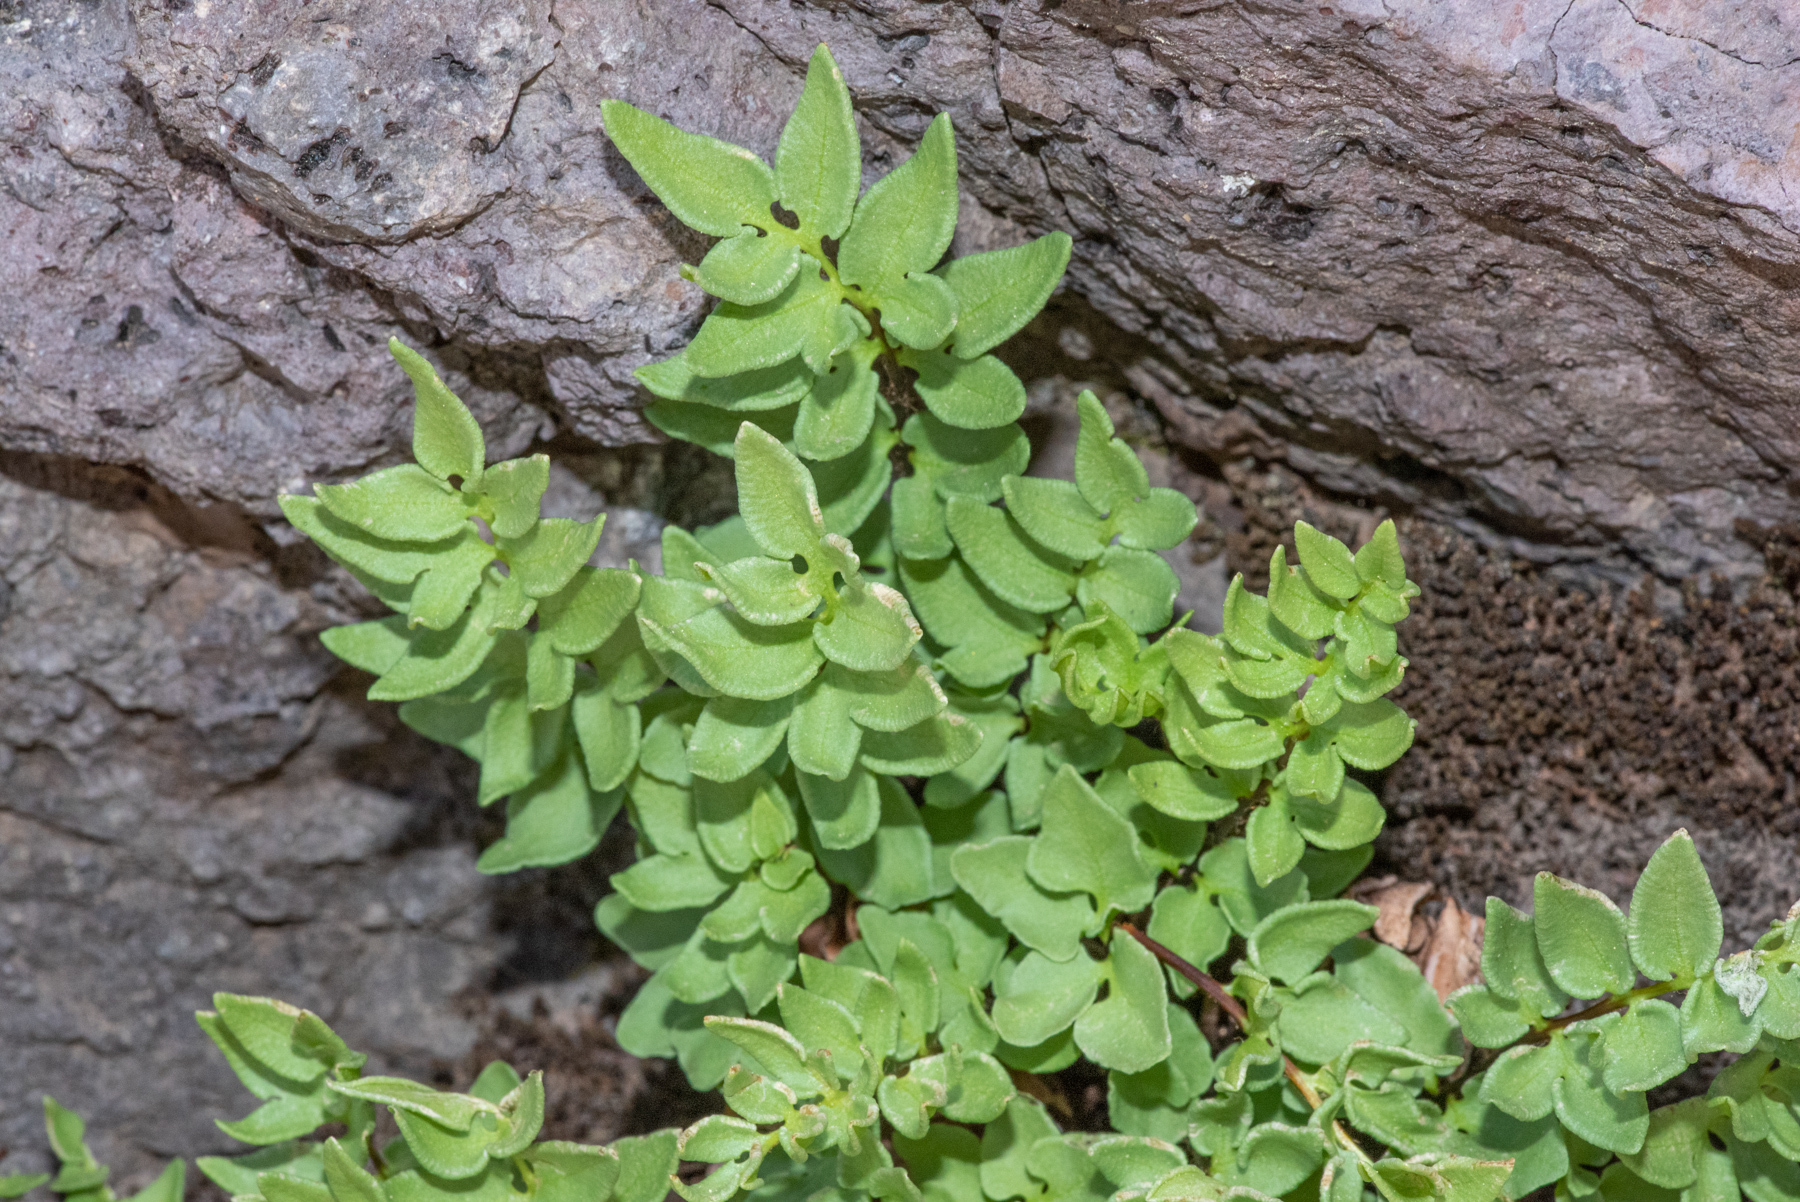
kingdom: Plantae
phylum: Tracheophyta
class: Polypodiopsida
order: Polypodiales
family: Pteridaceae
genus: Pellaea
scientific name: Pellaea breweri
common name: Brewer's cliffbrake
